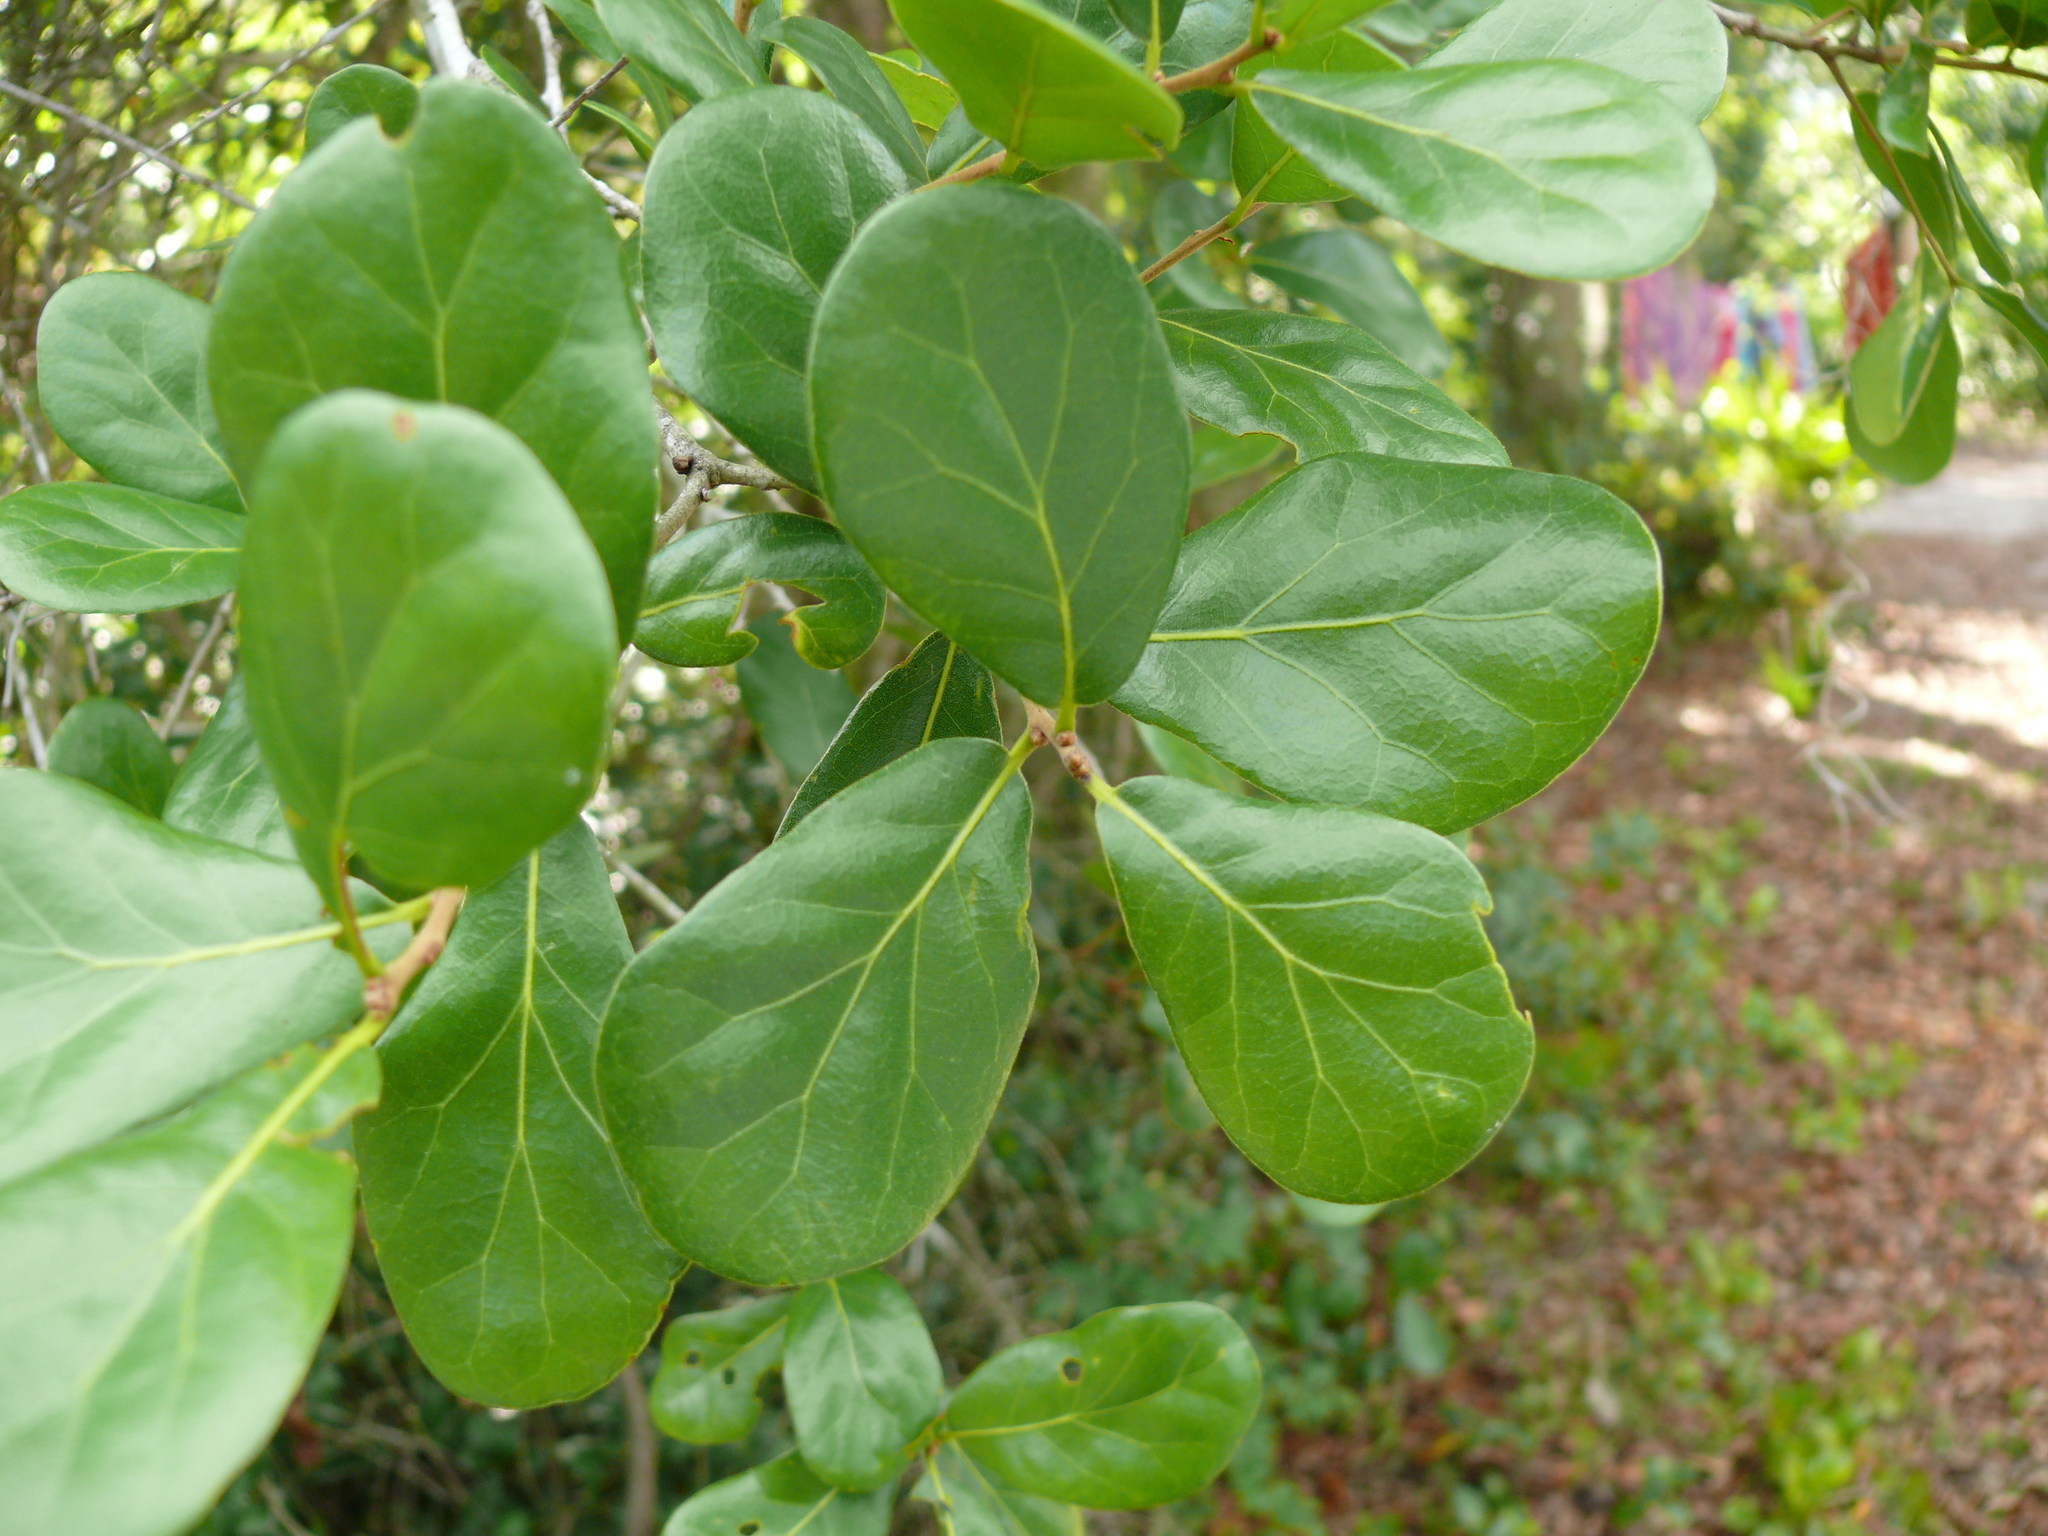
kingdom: Plantae
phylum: Tracheophyta
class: Magnoliopsida
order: Fagales
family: Fagaceae
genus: Quercus
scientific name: Quercus myrtifolia
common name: Myrtle oak
